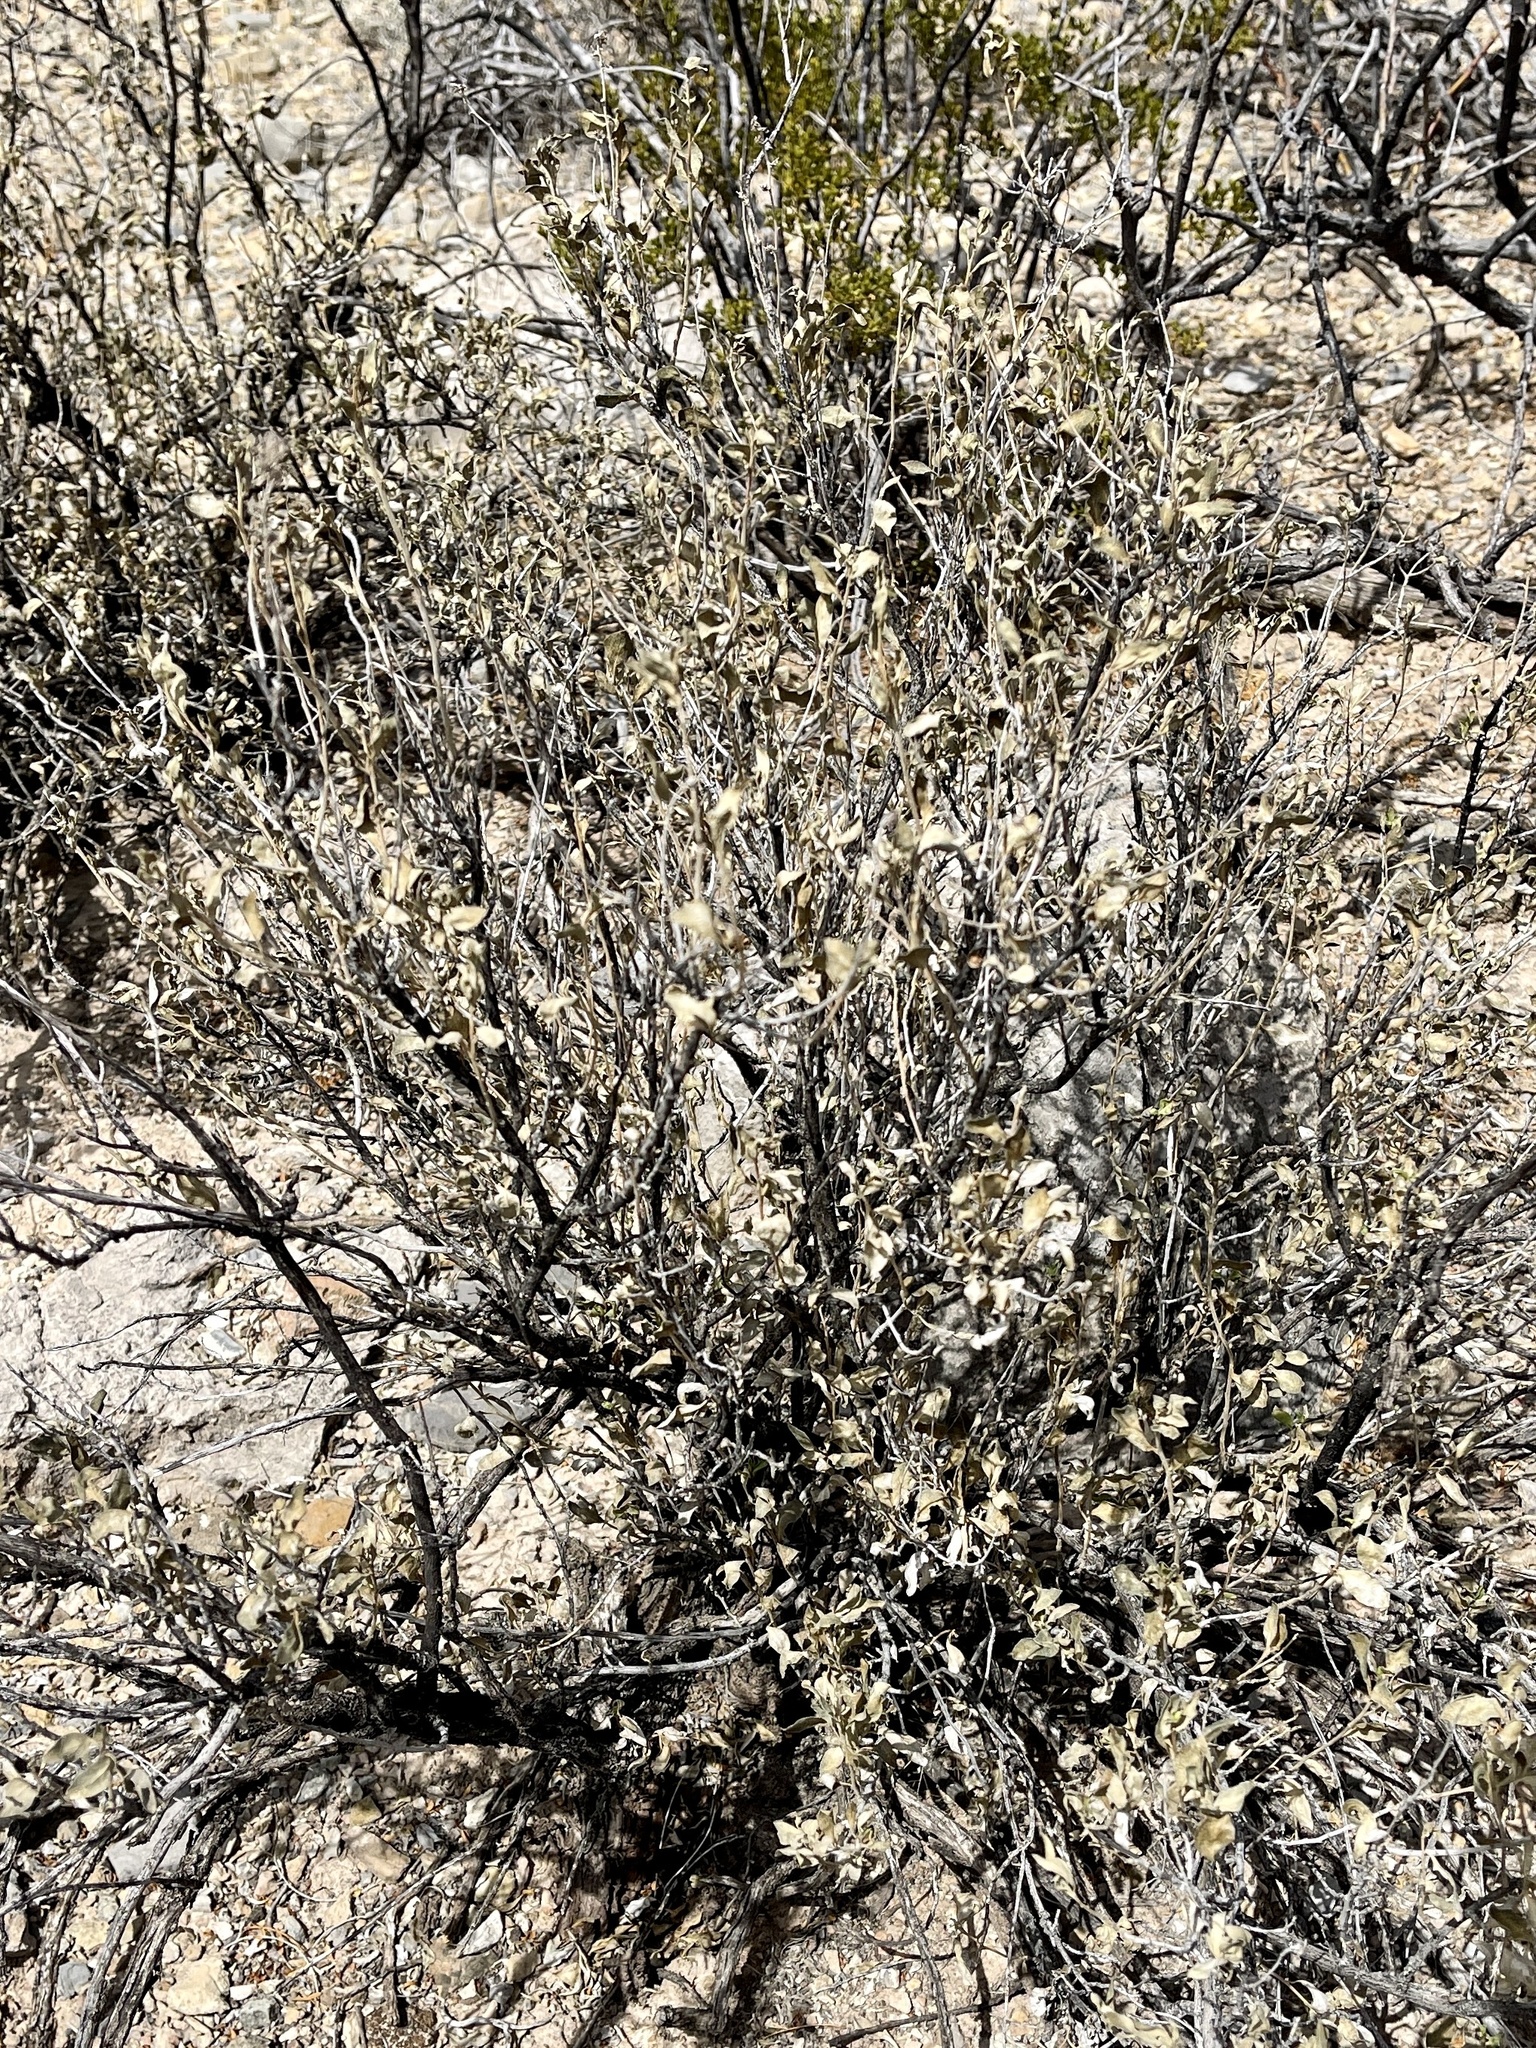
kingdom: Plantae
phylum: Tracheophyta
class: Magnoliopsida
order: Asterales
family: Asteraceae
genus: Flourensia
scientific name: Flourensia cernua
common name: Varnishbush
